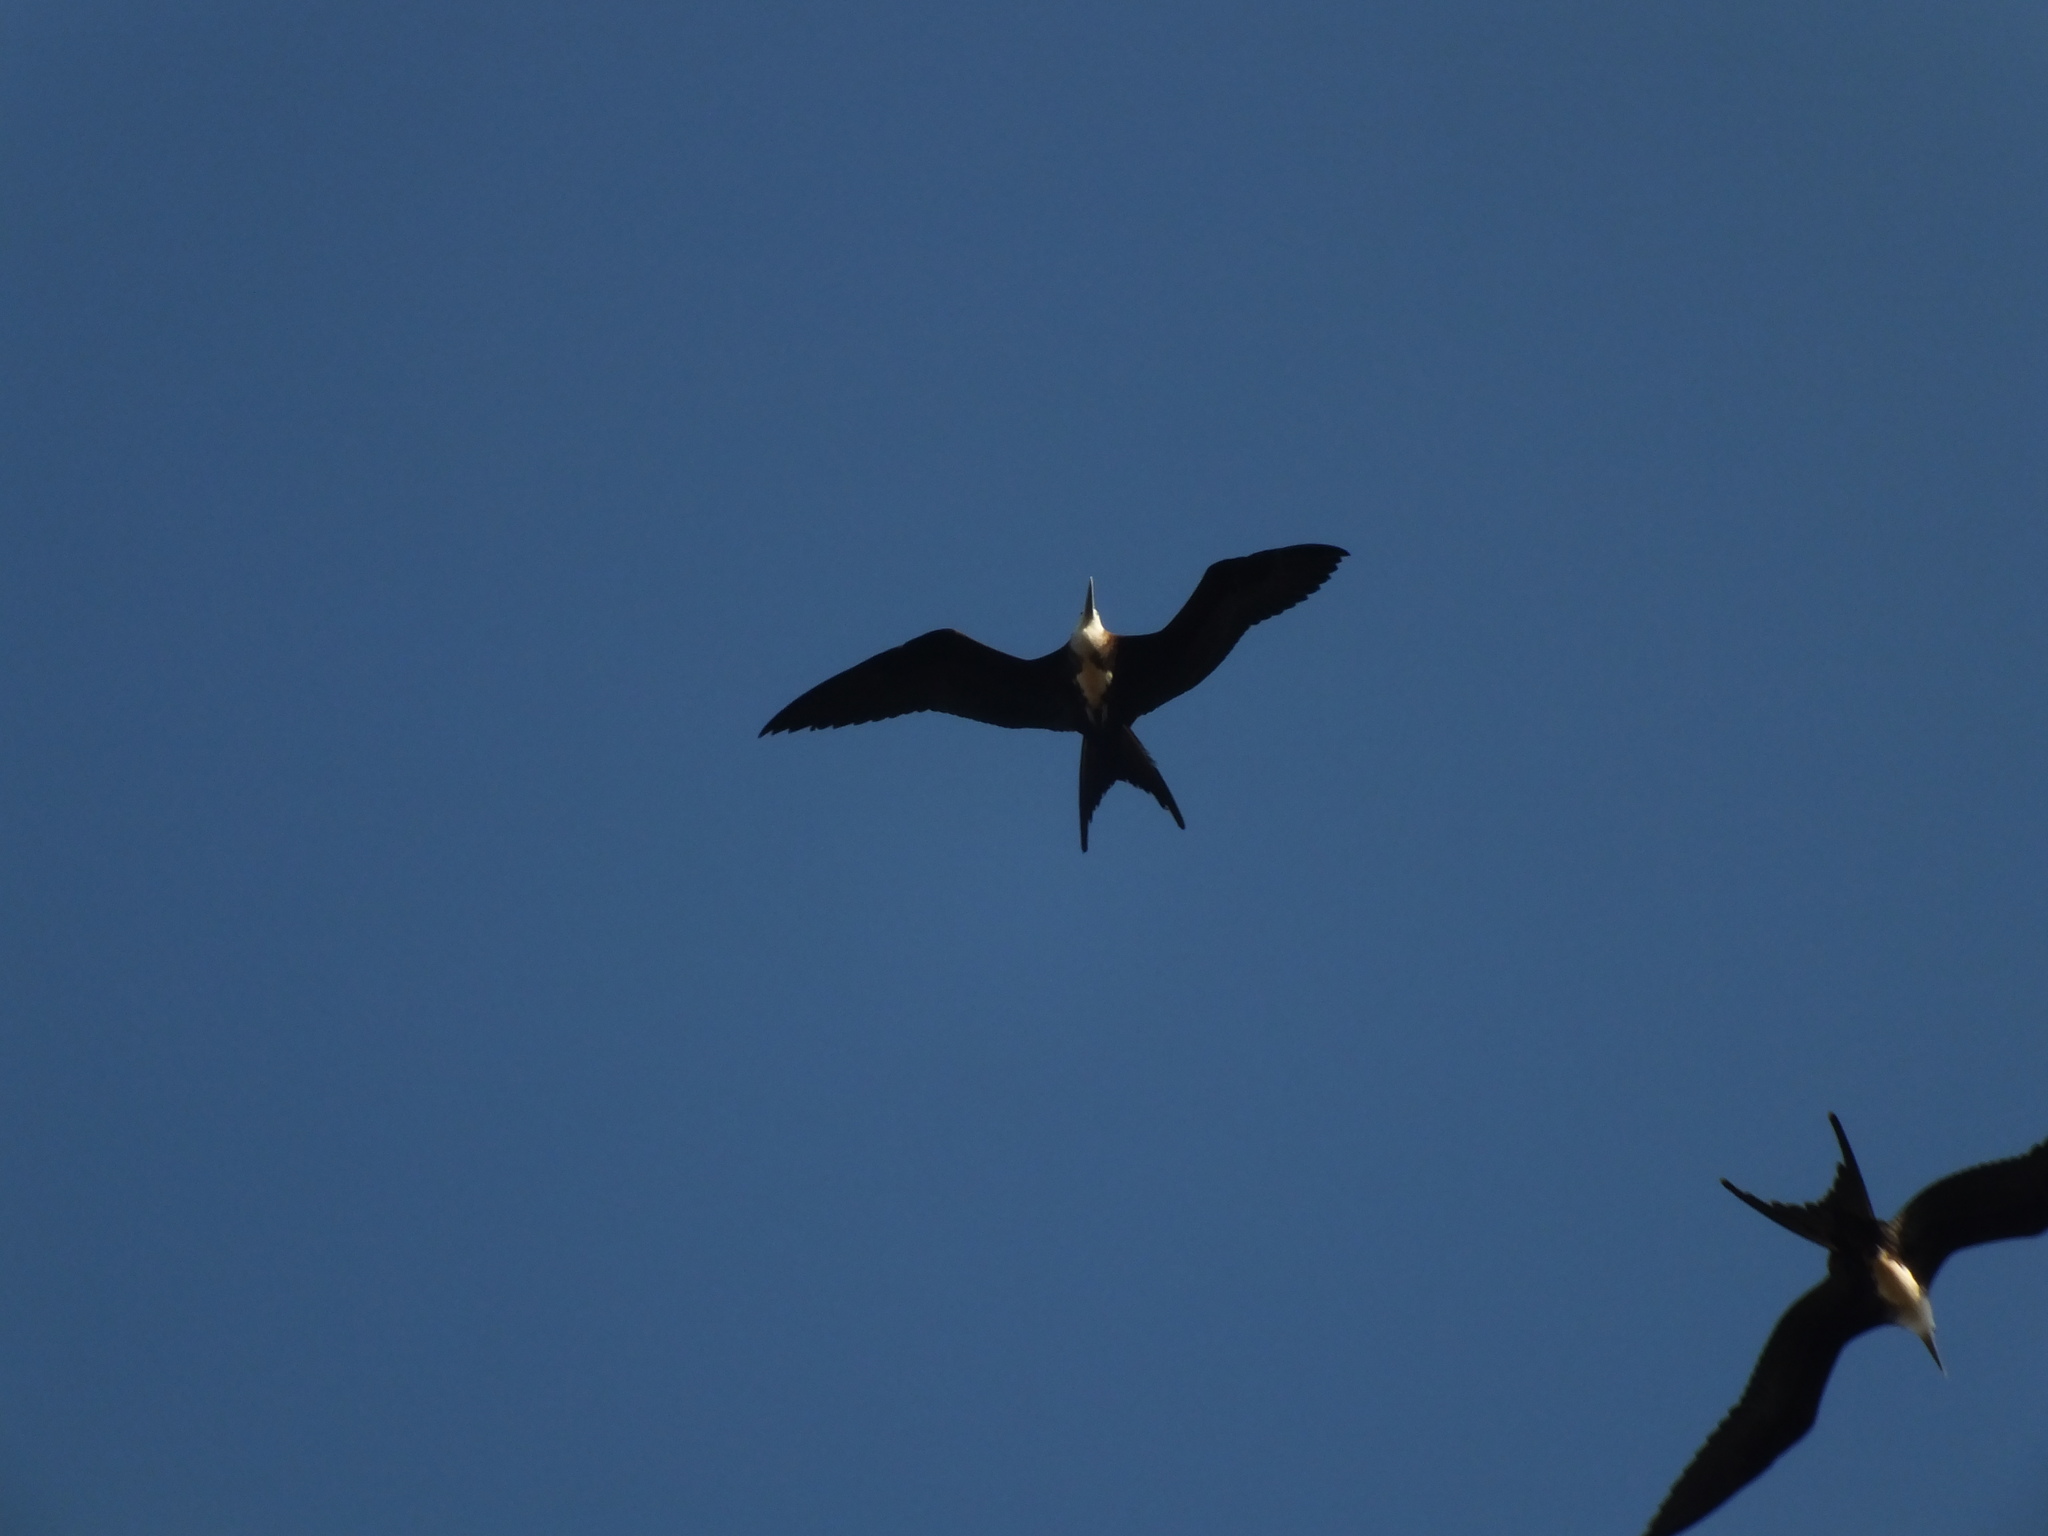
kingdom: Animalia
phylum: Chordata
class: Aves
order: Suliformes
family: Fregatidae
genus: Fregata
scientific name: Fregata magnificens
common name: Magnificent frigatebird
